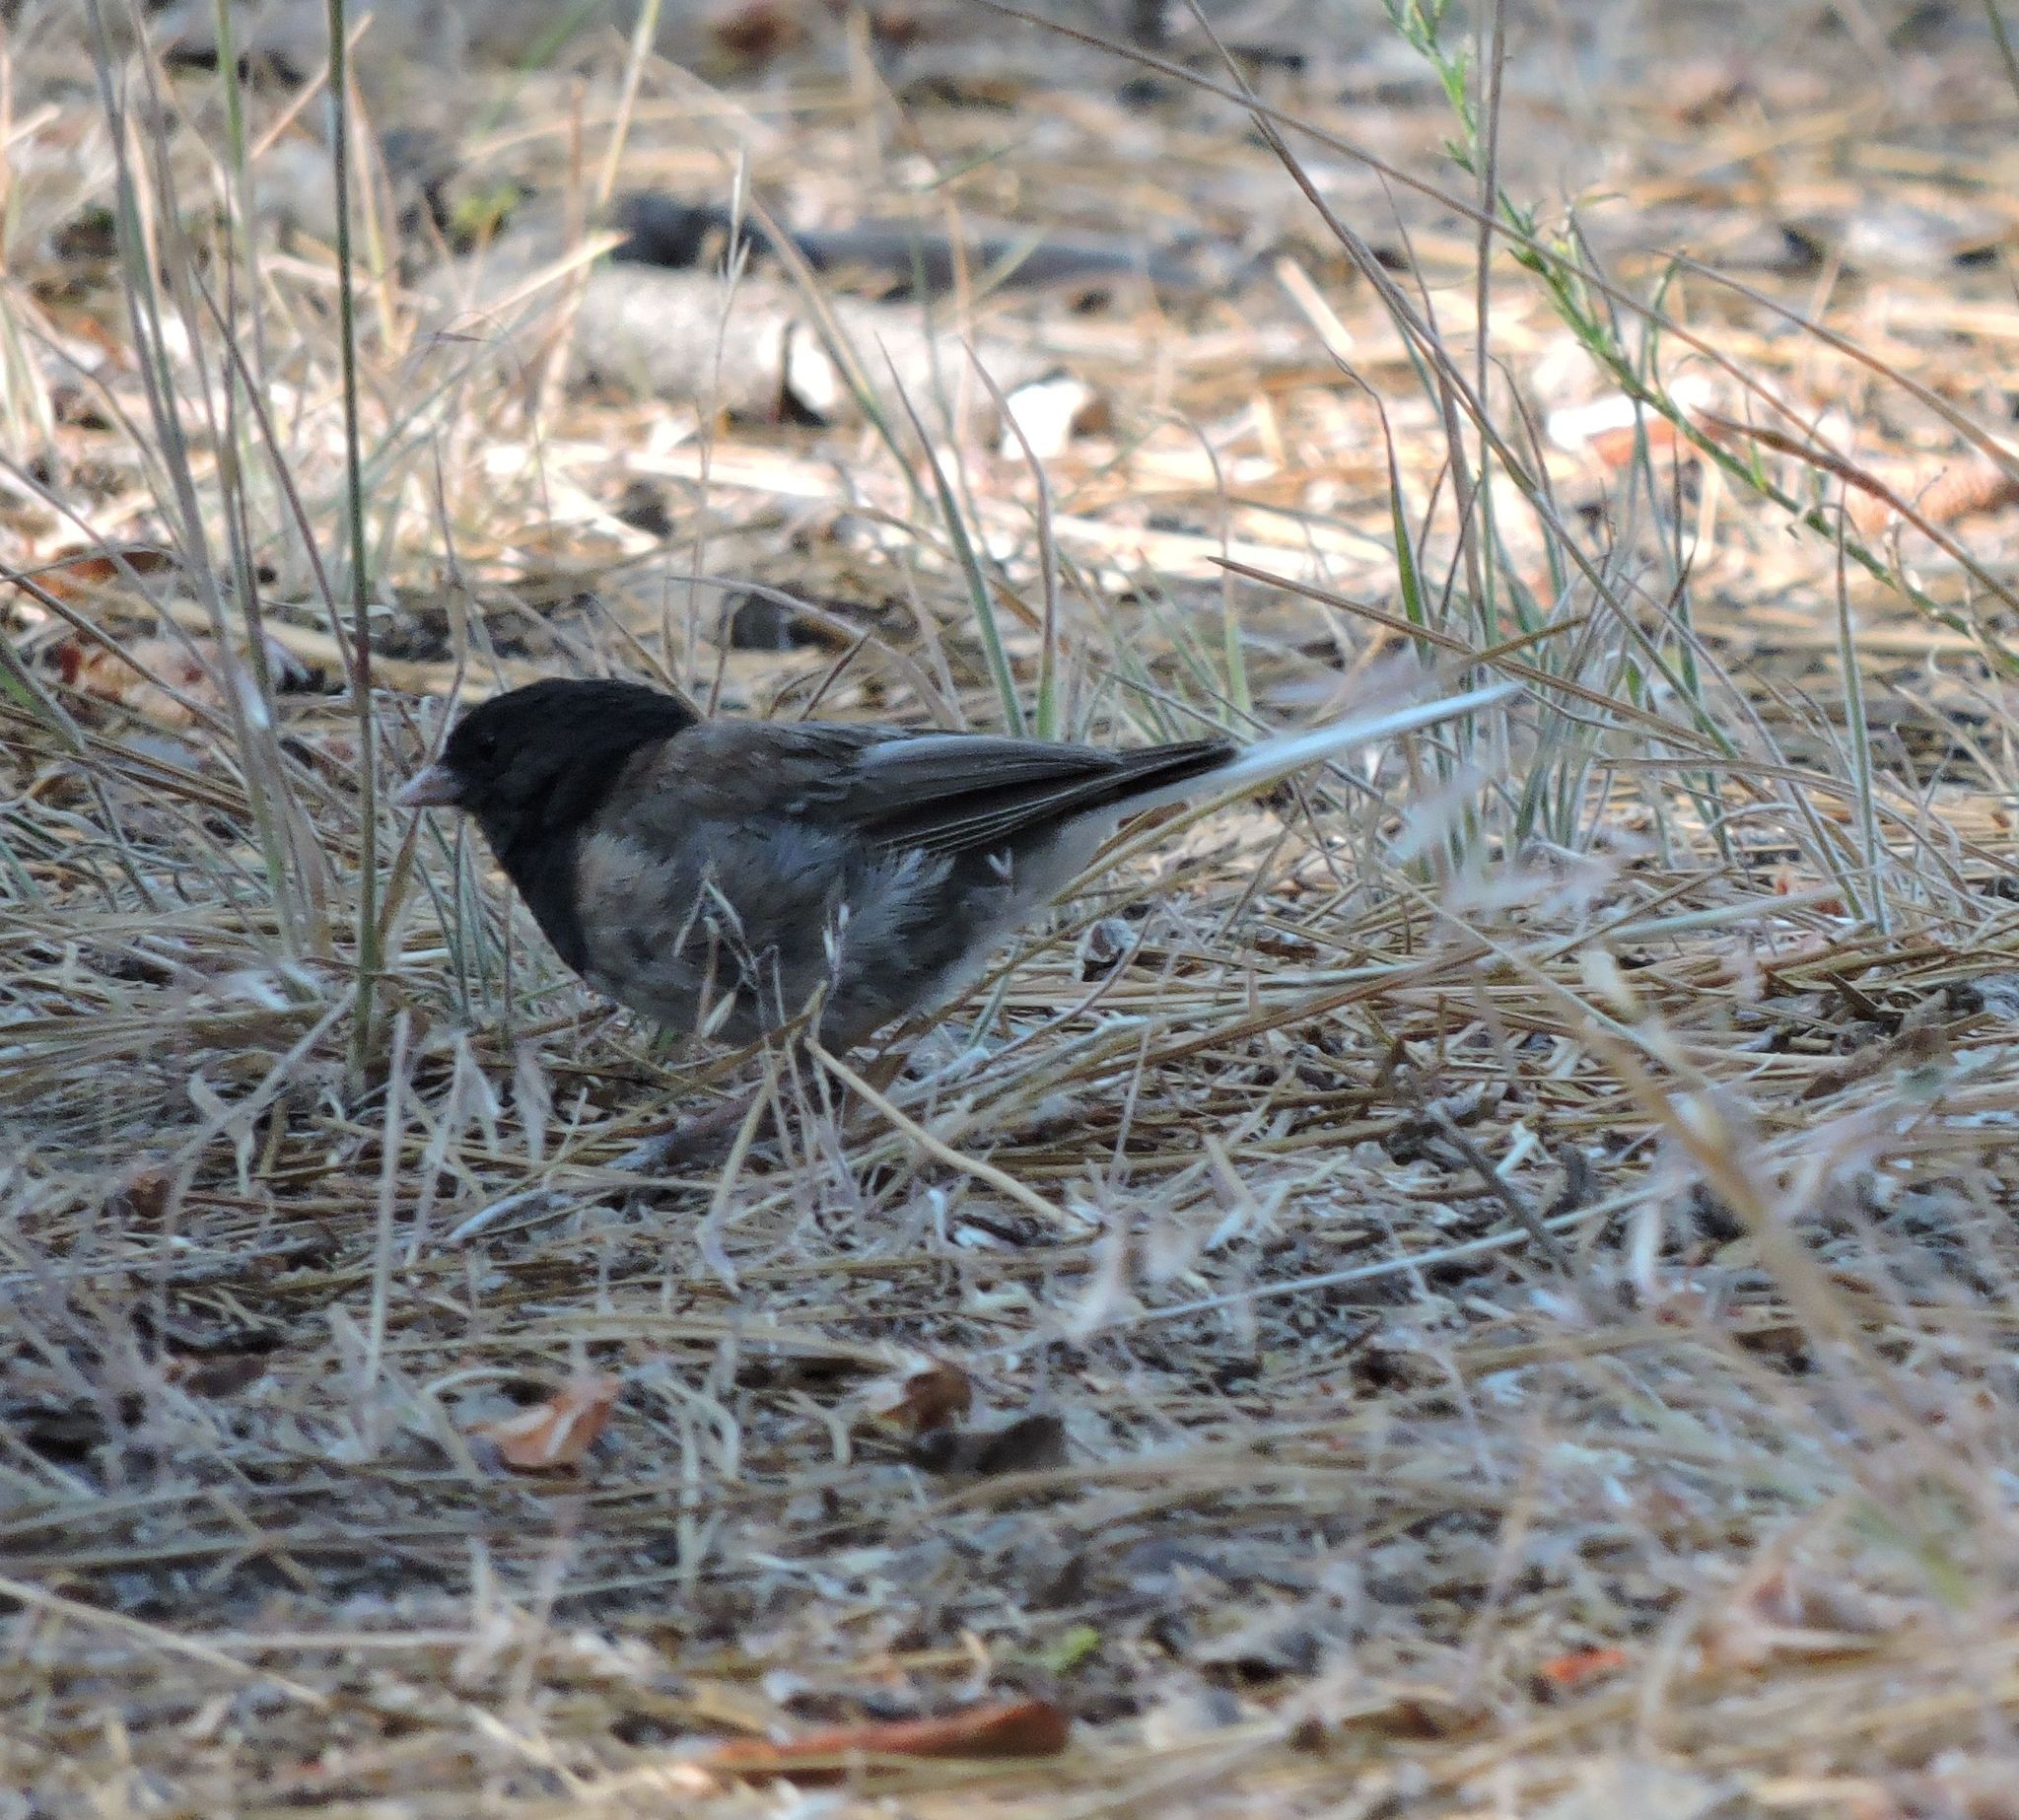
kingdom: Animalia
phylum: Chordata
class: Aves
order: Passeriformes
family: Passerellidae
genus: Junco
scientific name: Junco hyemalis
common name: Dark-eyed junco
